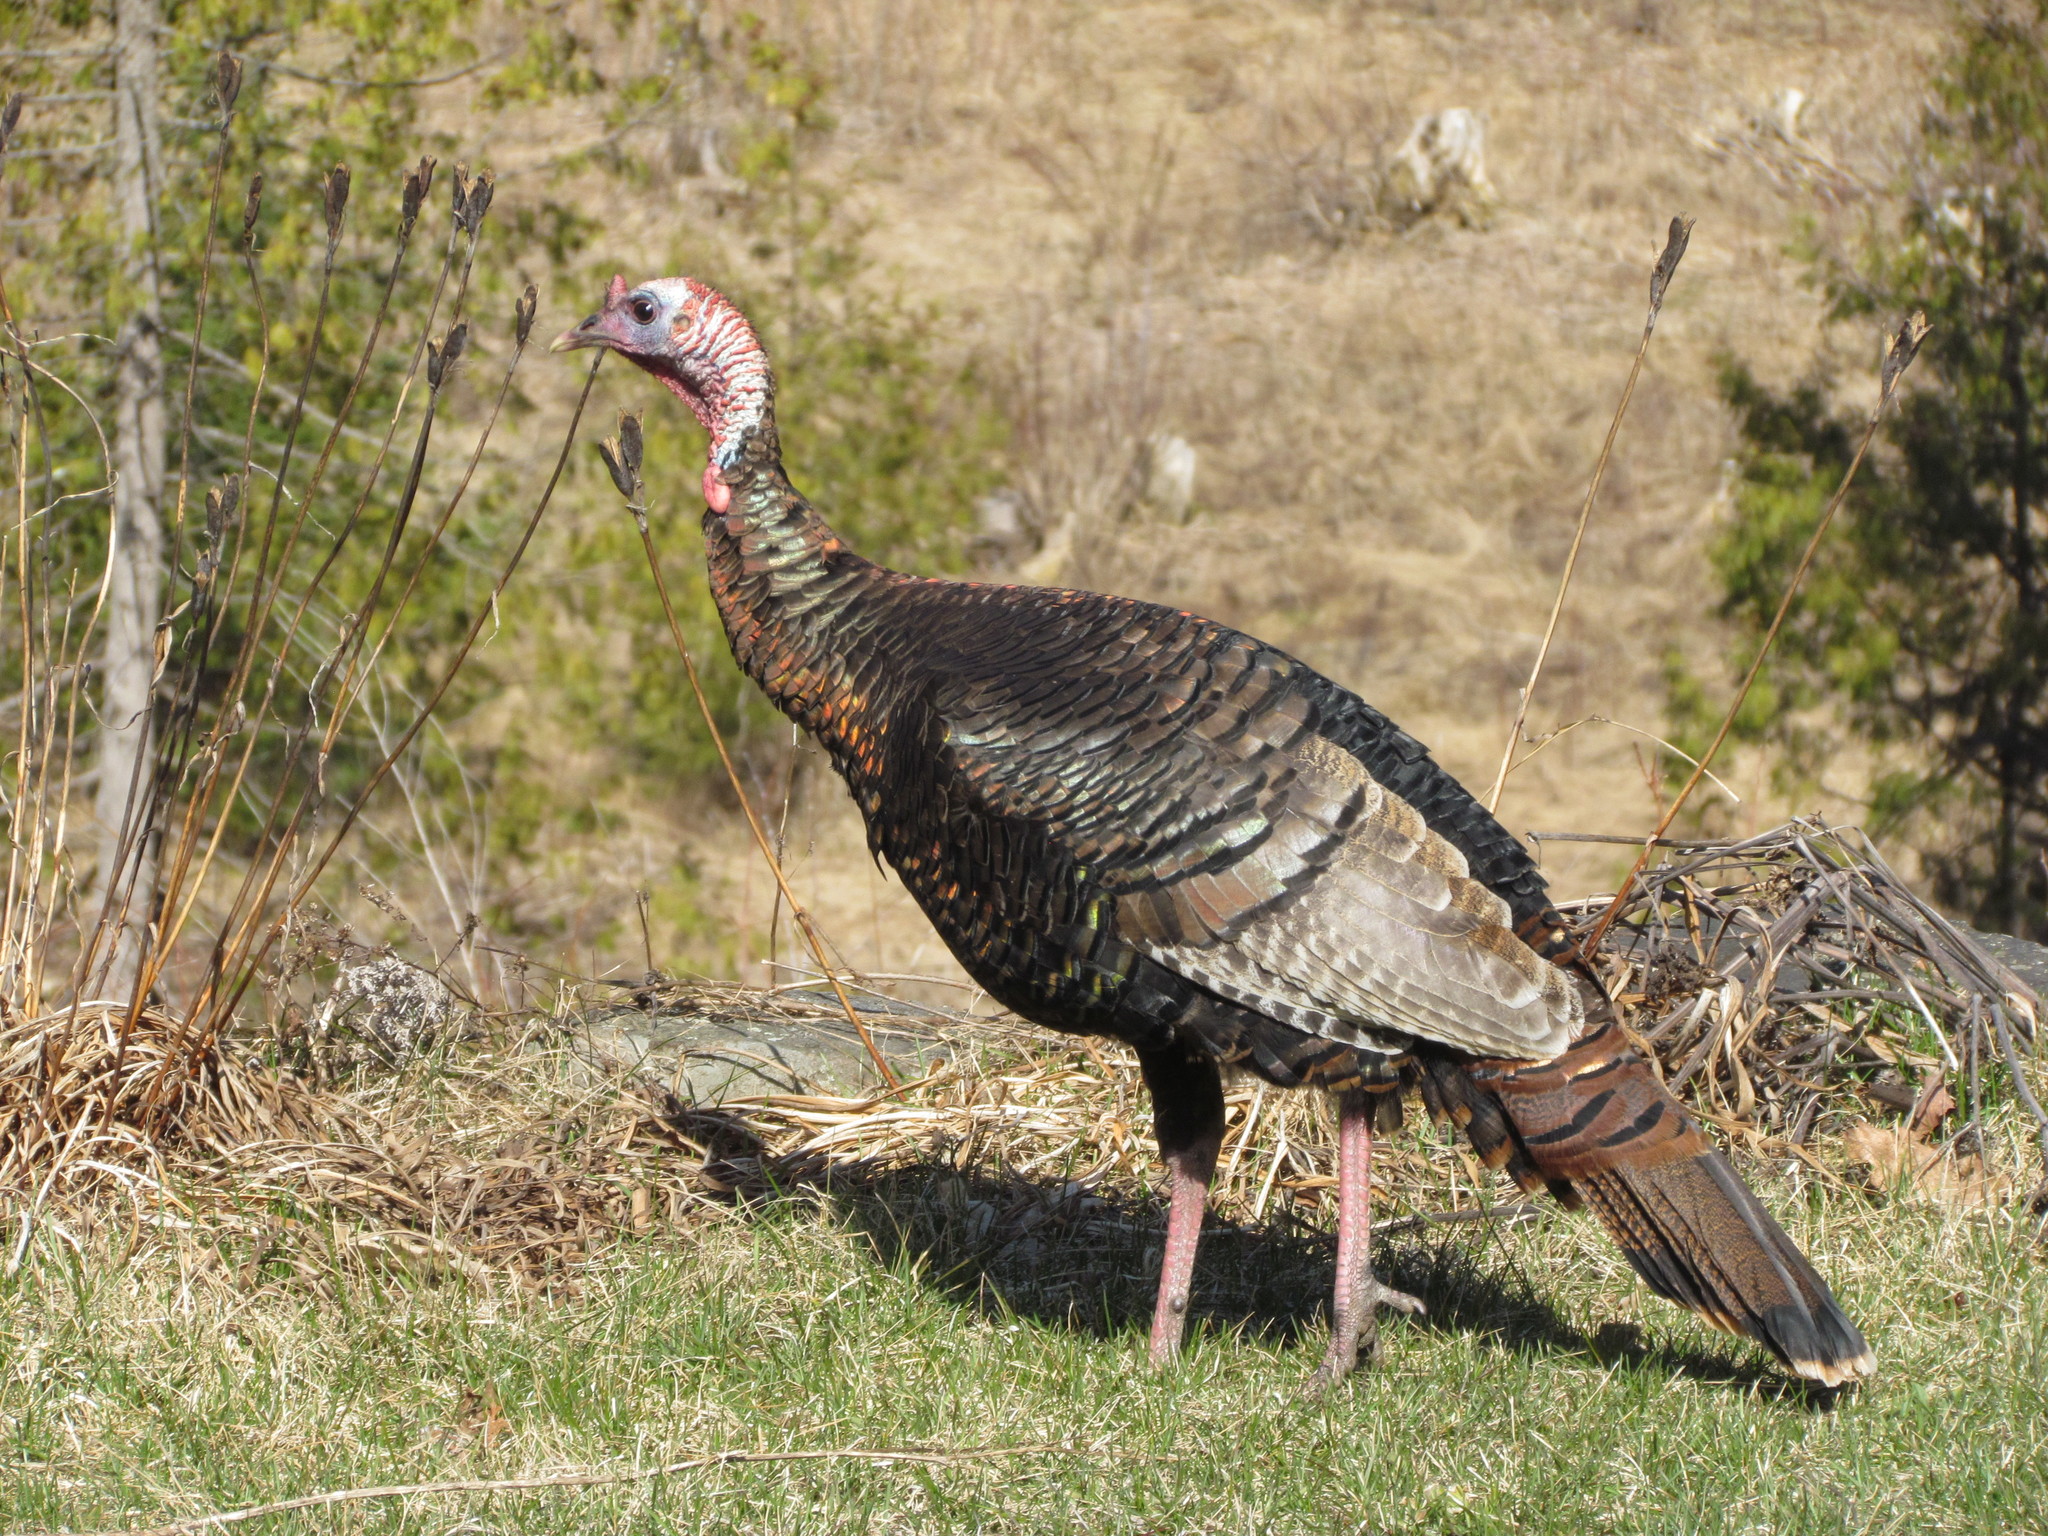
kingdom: Animalia
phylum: Chordata
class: Aves
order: Galliformes
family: Phasianidae
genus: Meleagris
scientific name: Meleagris gallopavo
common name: Wild turkey
